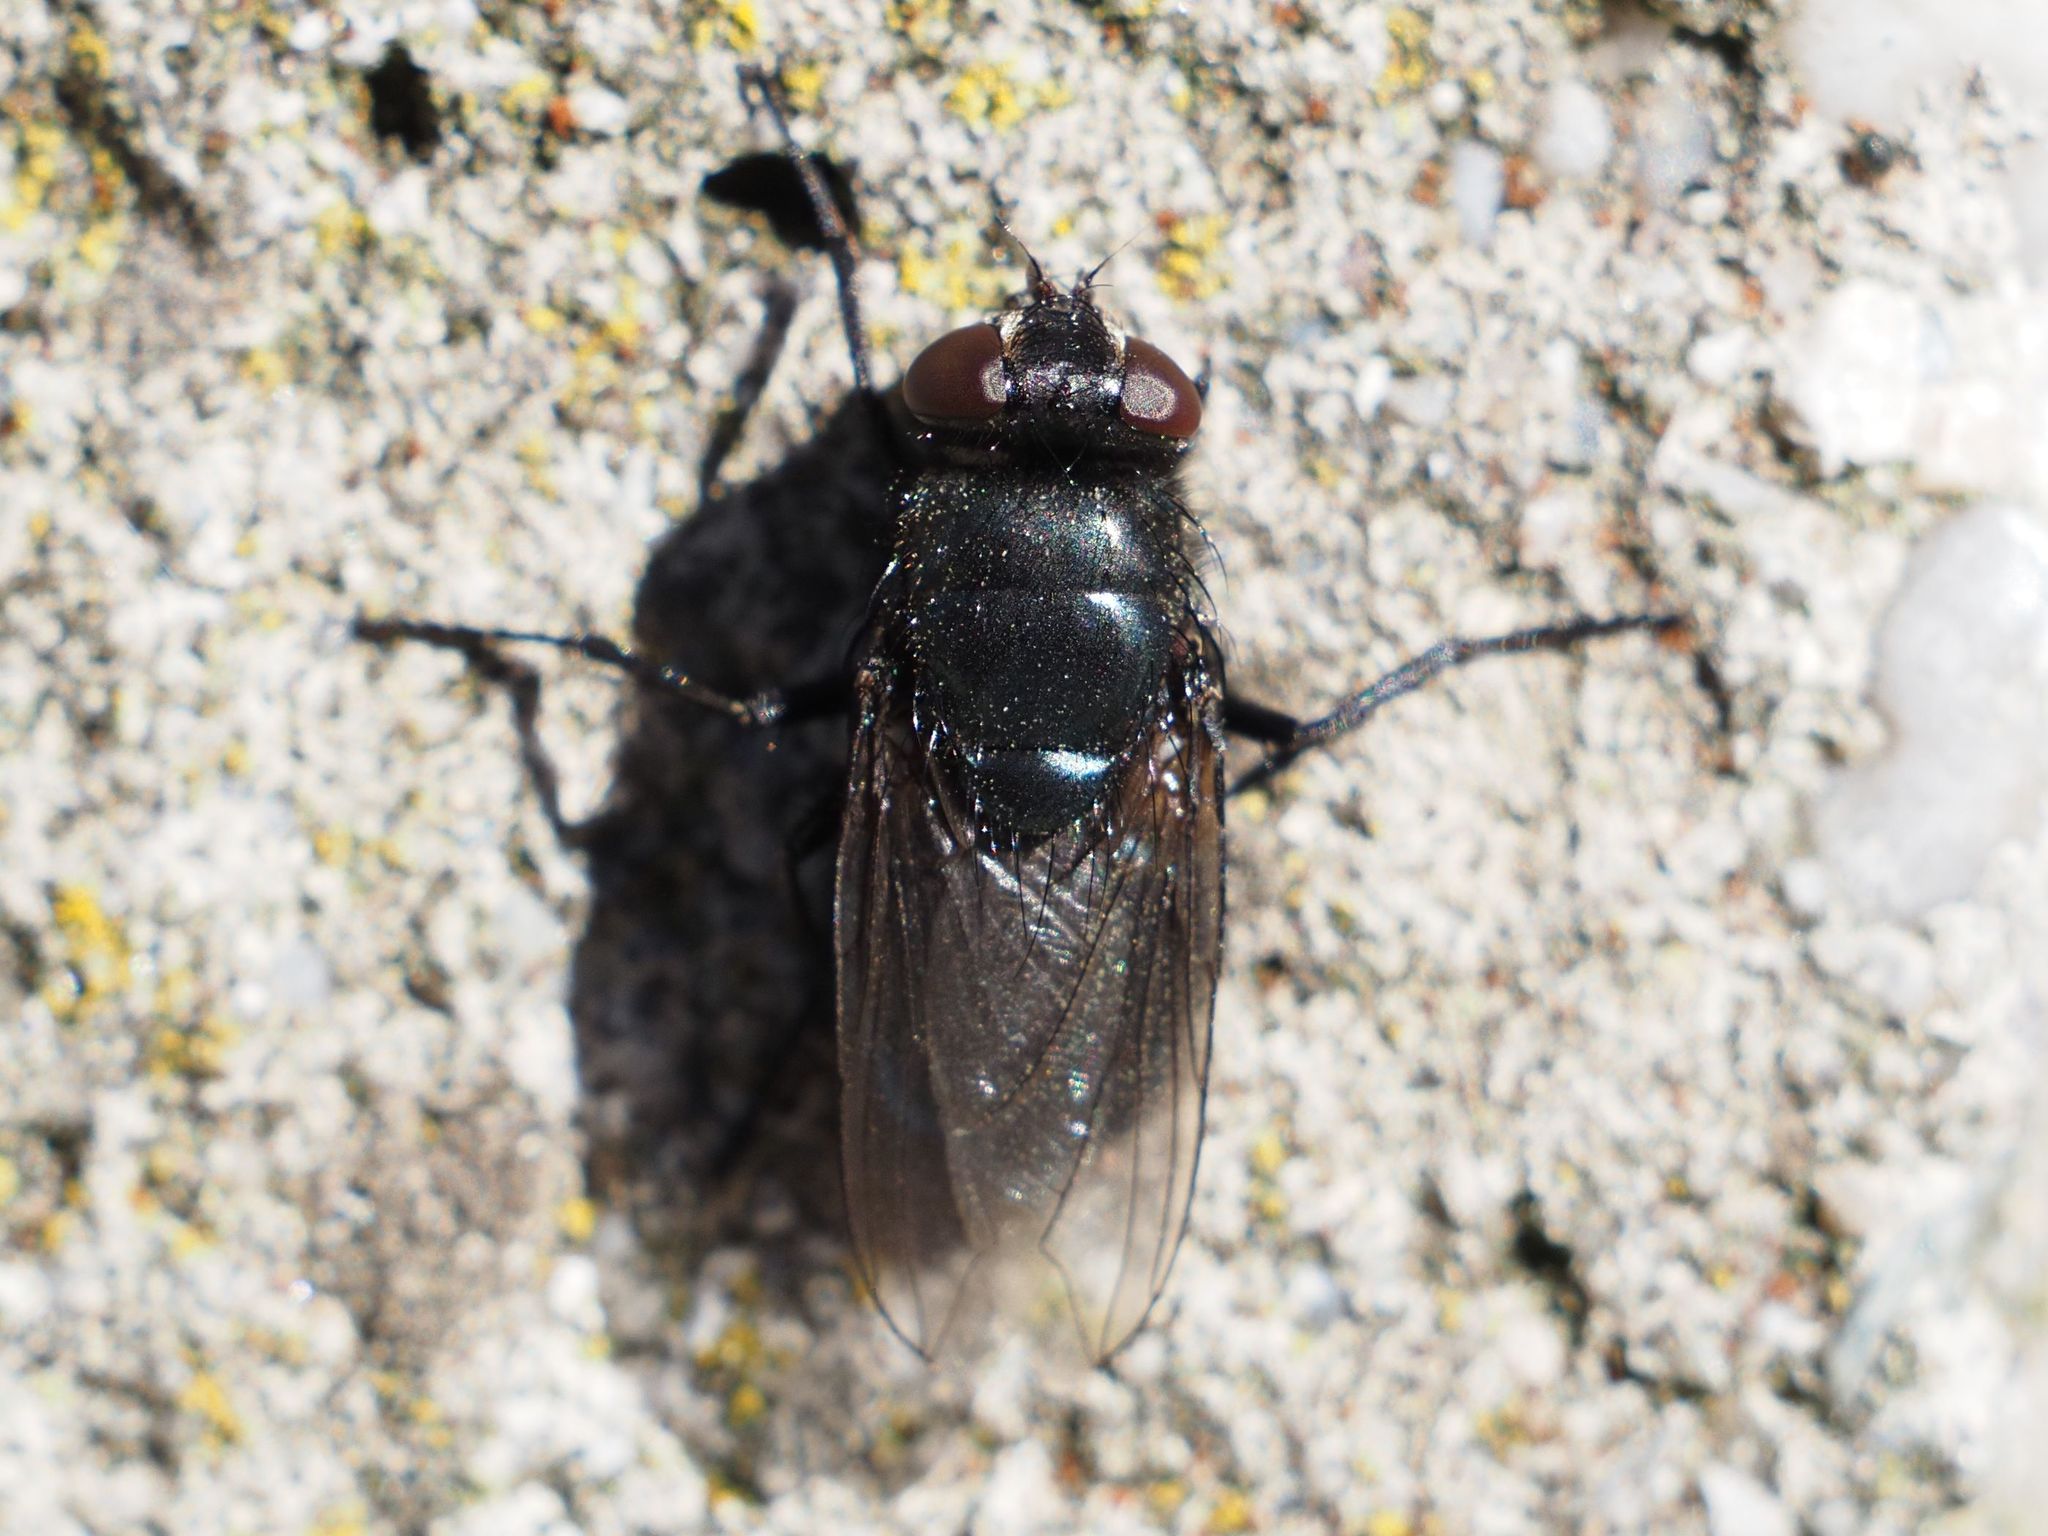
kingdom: Animalia
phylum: Arthropoda
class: Insecta
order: Diptera
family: Calliphoridae
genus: Protophormia
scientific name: Protophormia terraenovae
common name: Blackbottle
